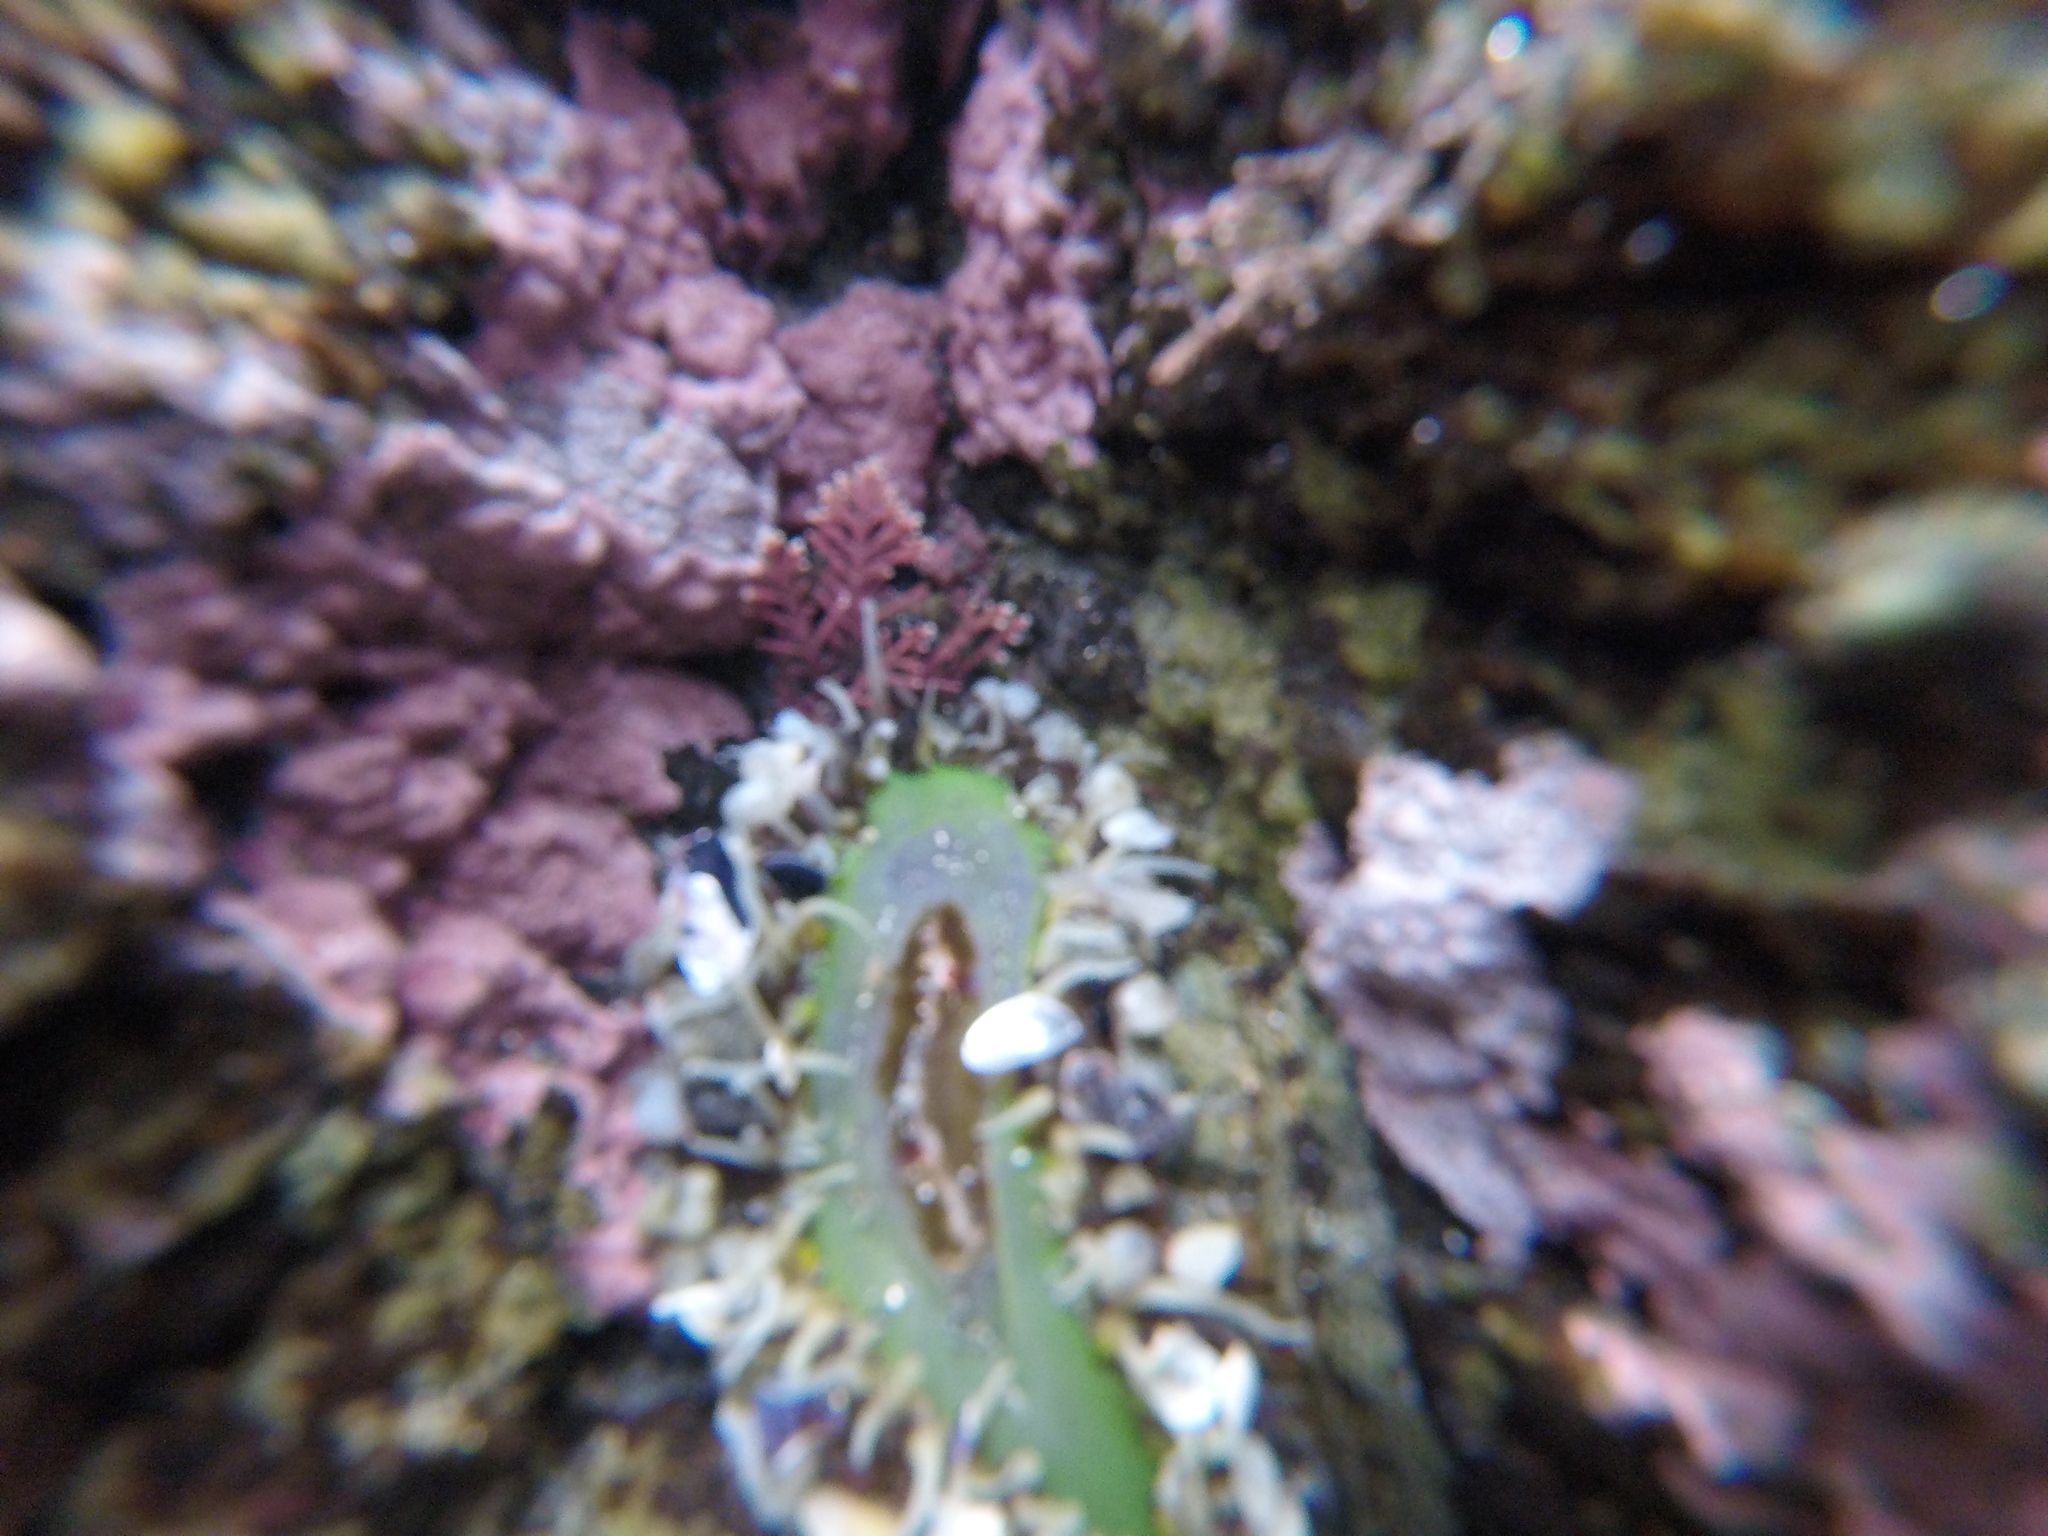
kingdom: Animalia
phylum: Cnidaria
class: Anthozoa
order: Actiniaria
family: Actiniidae
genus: Oulactis
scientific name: Oulactis magna
